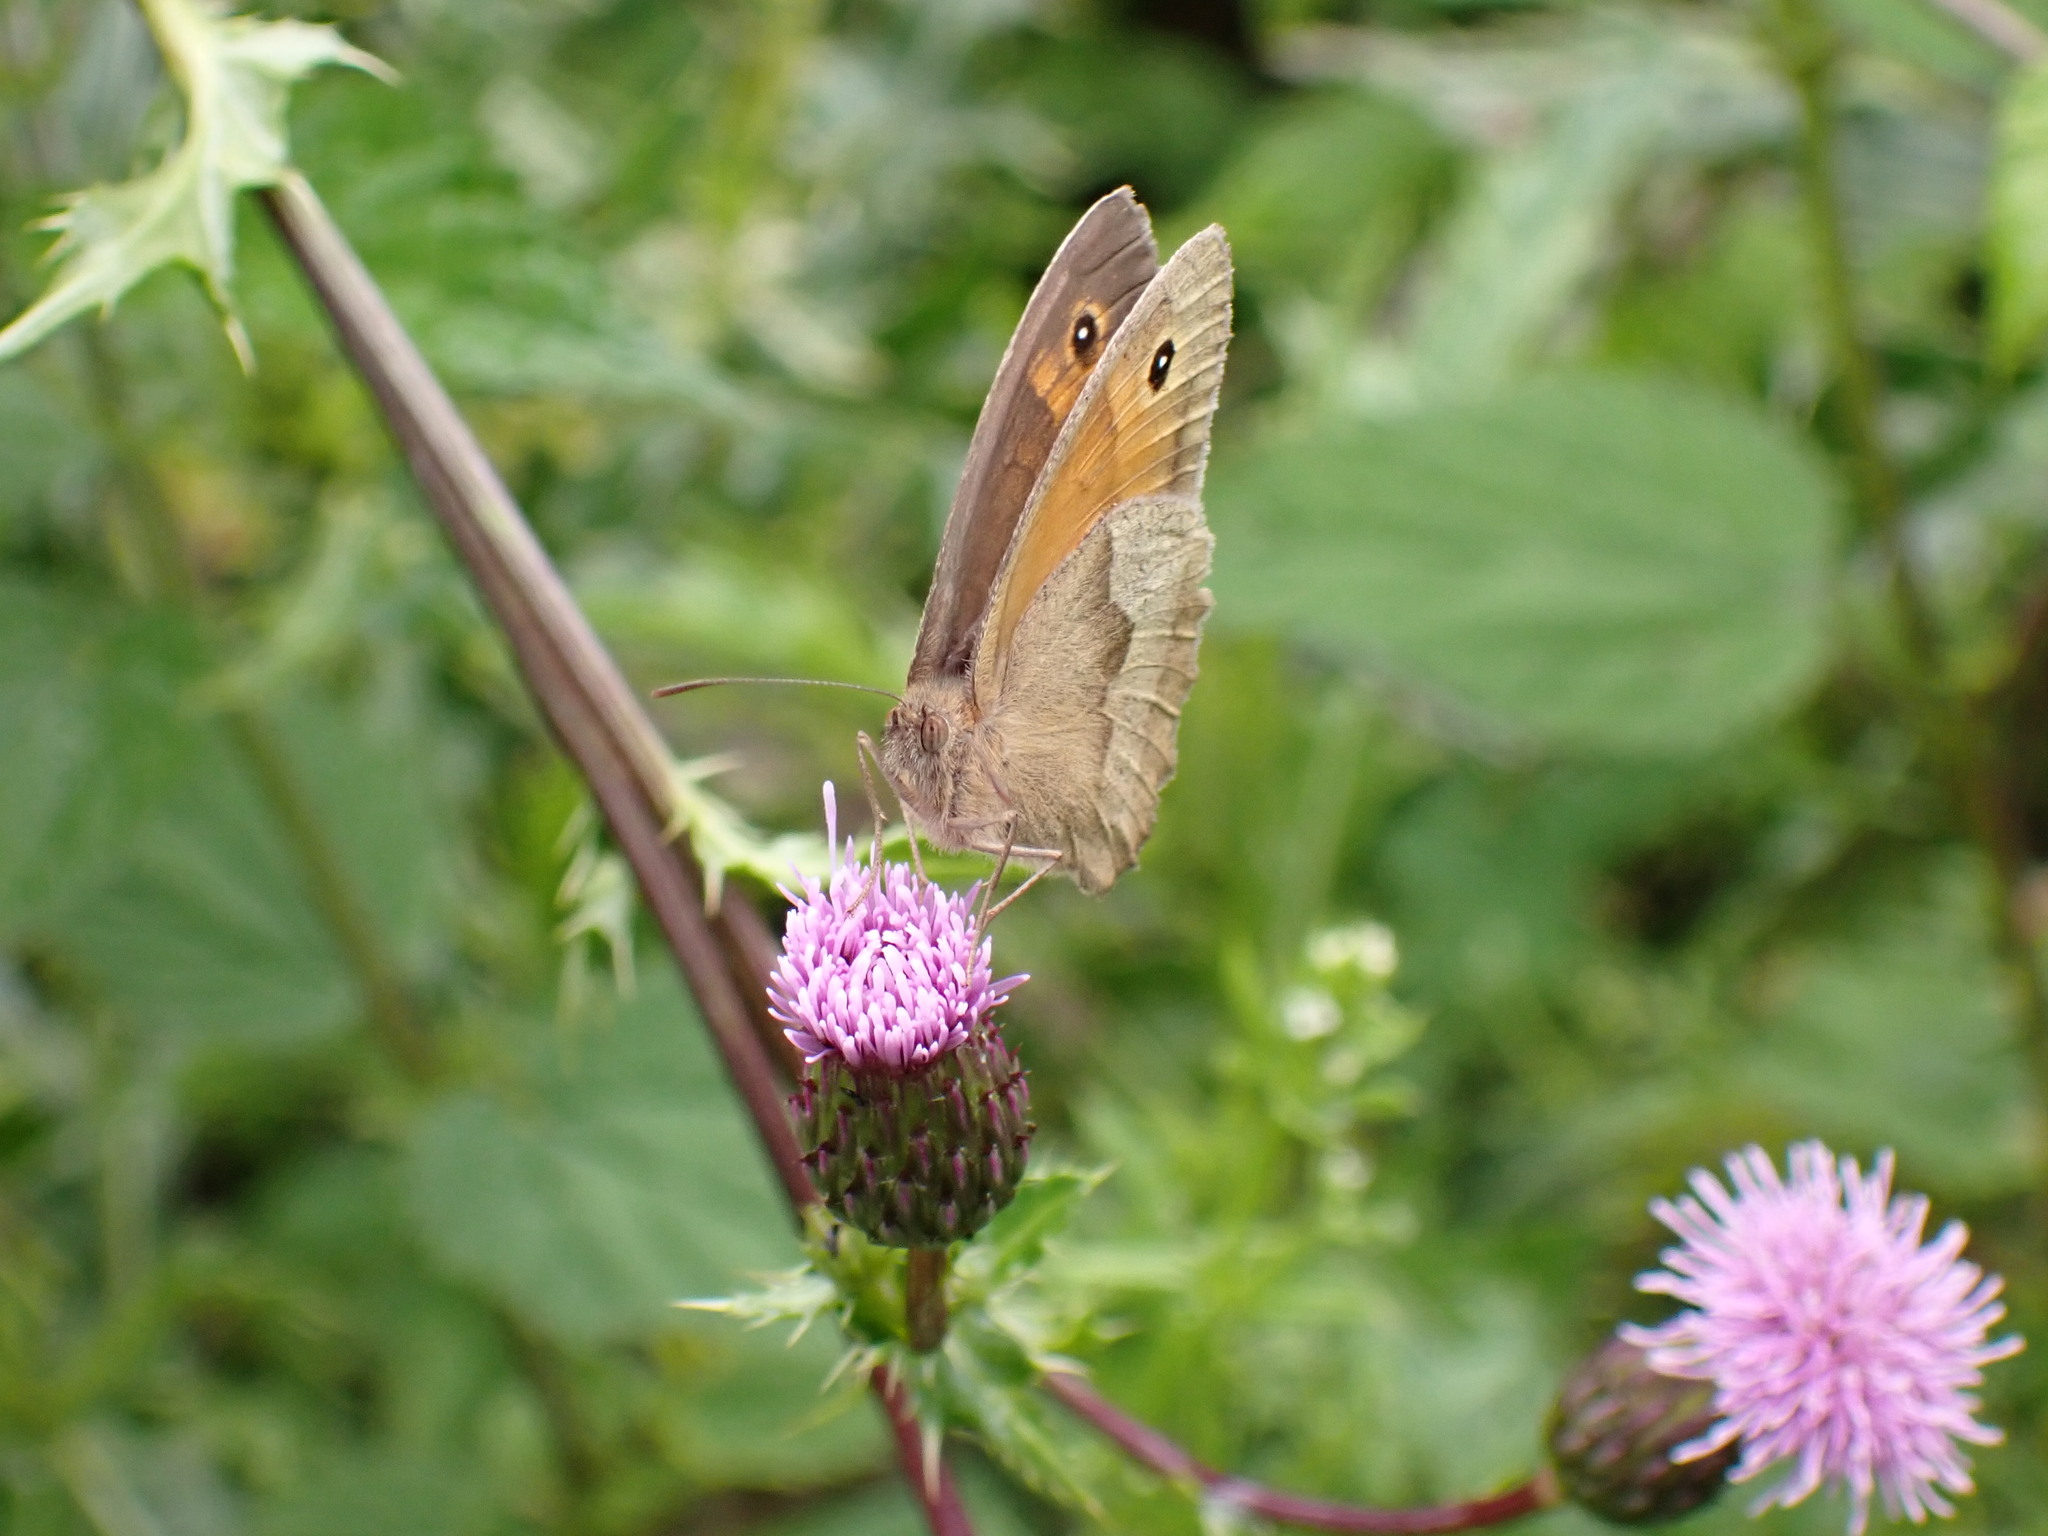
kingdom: Animalia
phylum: Arthropoda
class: Insecta
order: Lepidoptera
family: Nymphalidae
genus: Maniola
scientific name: Maniola jurtina
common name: Meadow brown
